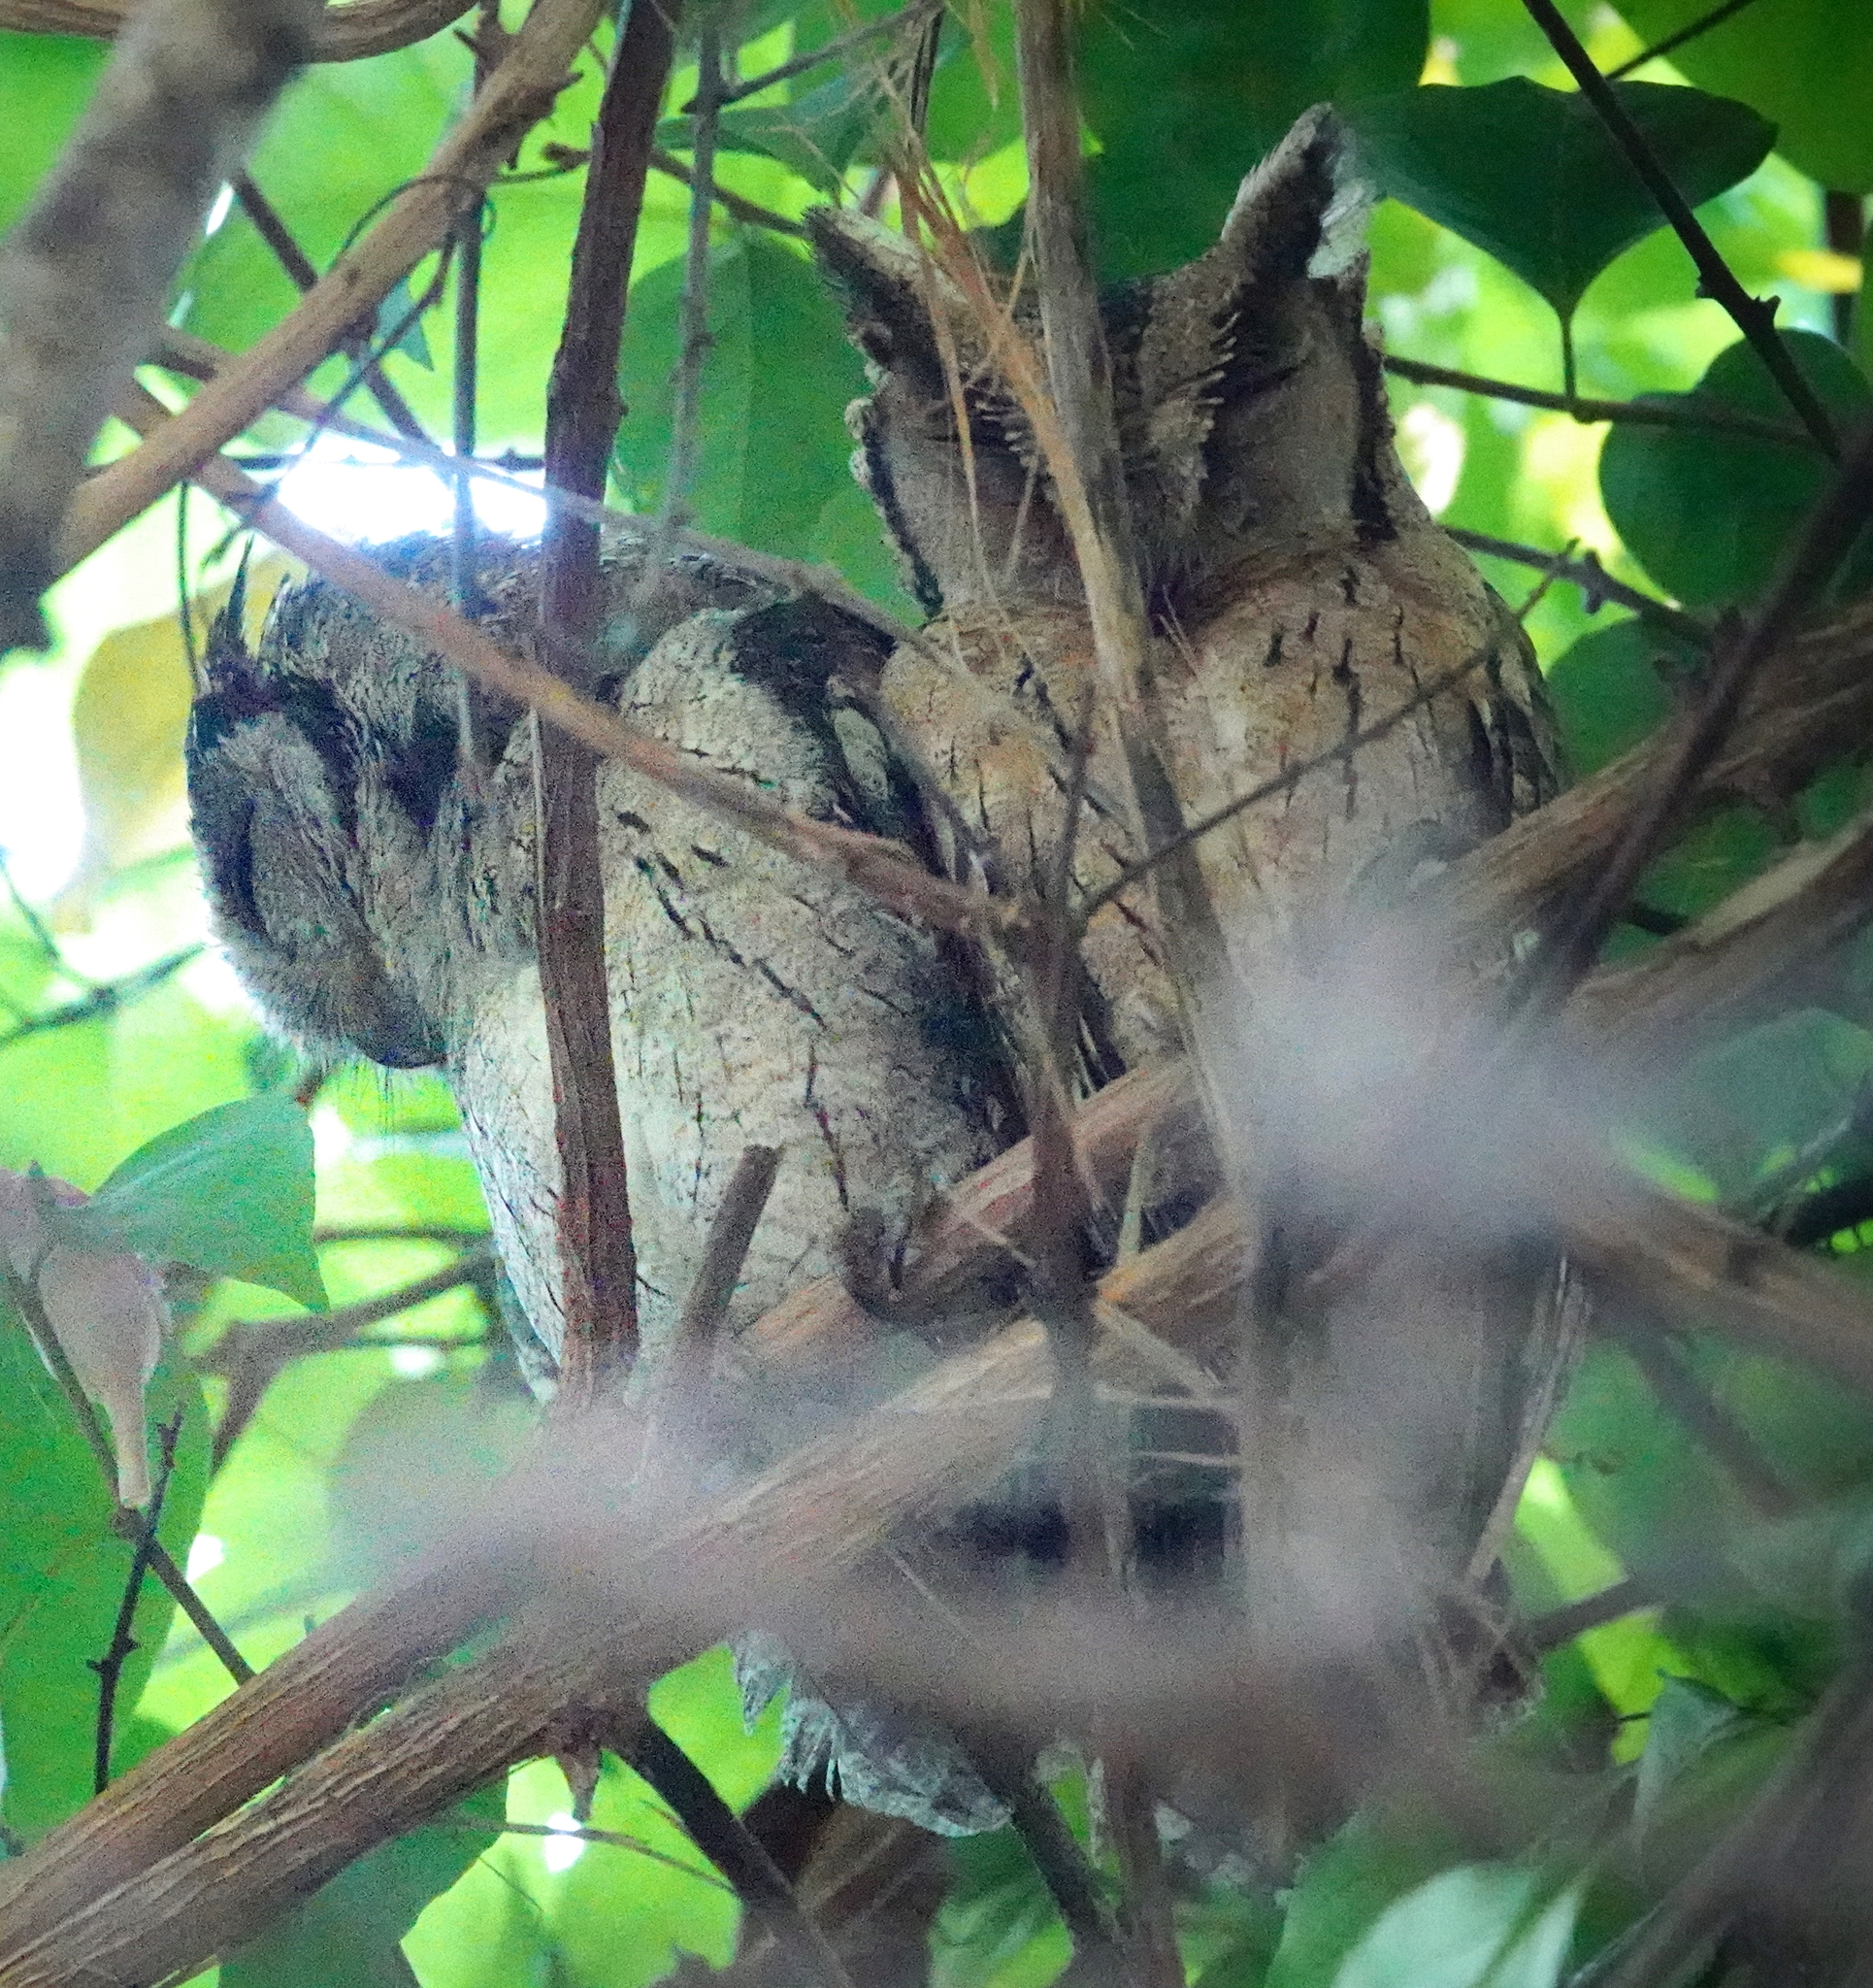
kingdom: Animalia
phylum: Chordata
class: Aves
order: Strigiformes
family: Strigidae
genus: Otus
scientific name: Otus bakkamoena
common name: Indian scops owl
